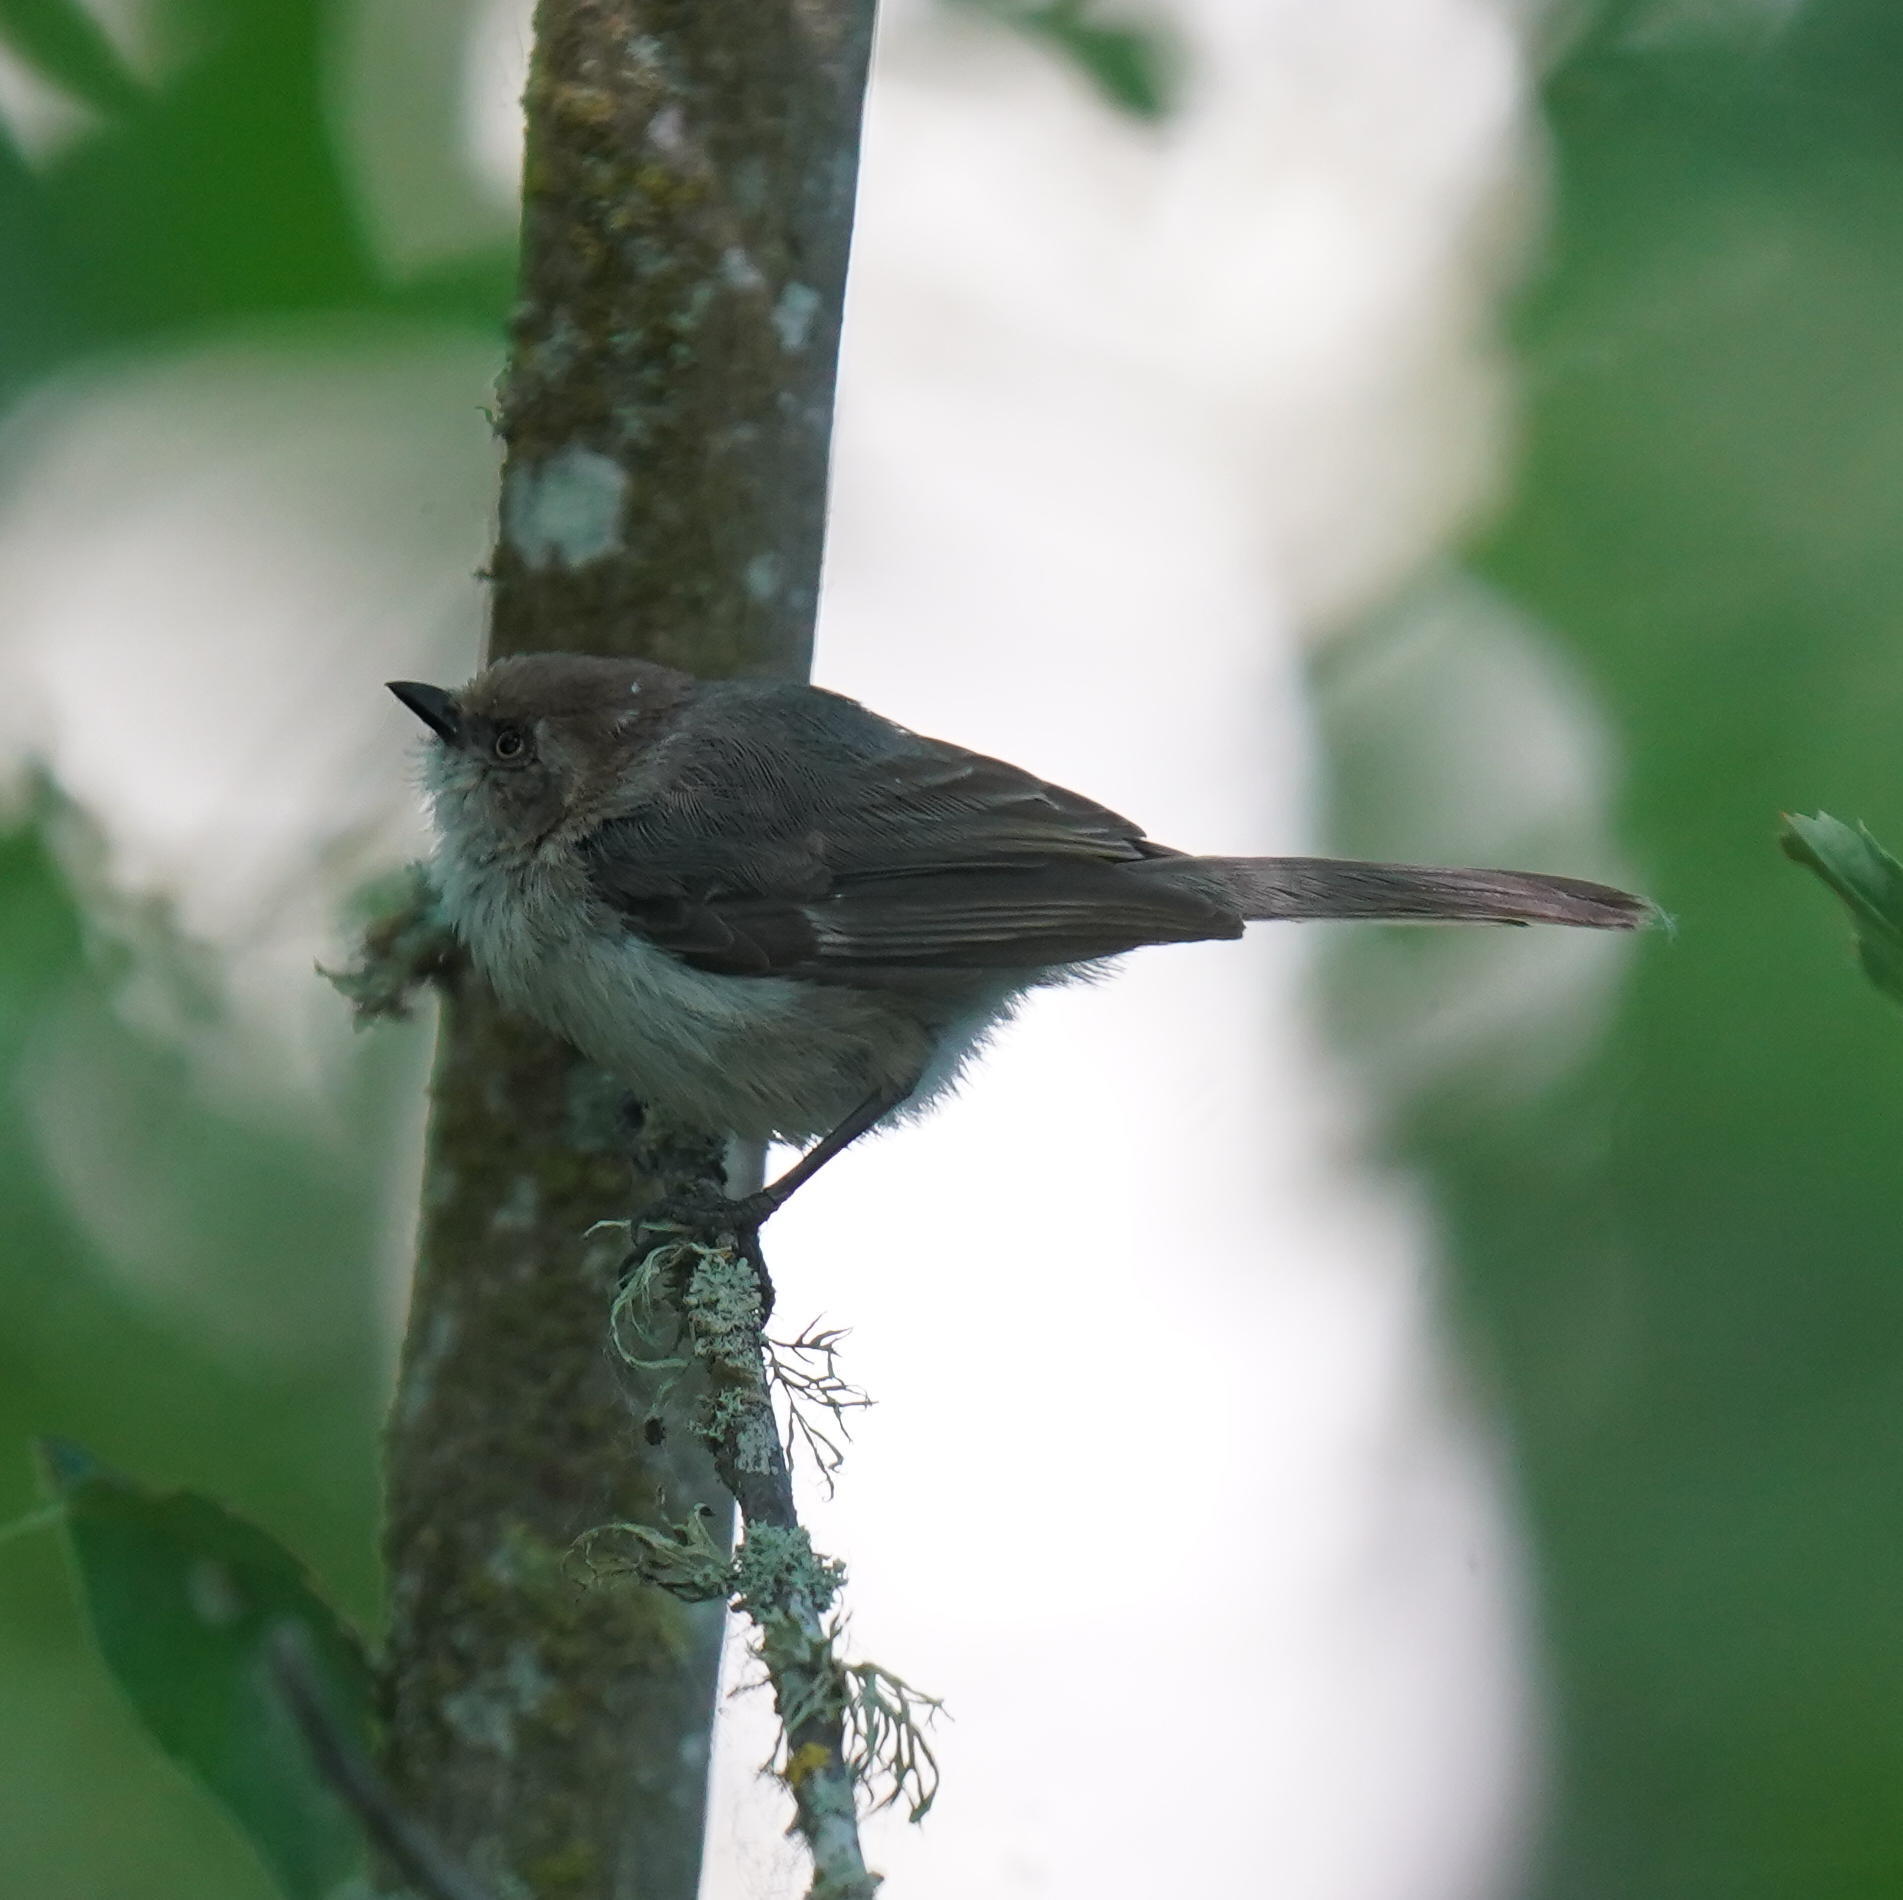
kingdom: Animalia
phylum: Chordata
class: Aves
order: Passeriformes
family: Aegithalidae
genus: Psaltriparus
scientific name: Psaltriparus minimus
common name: American bushtit
